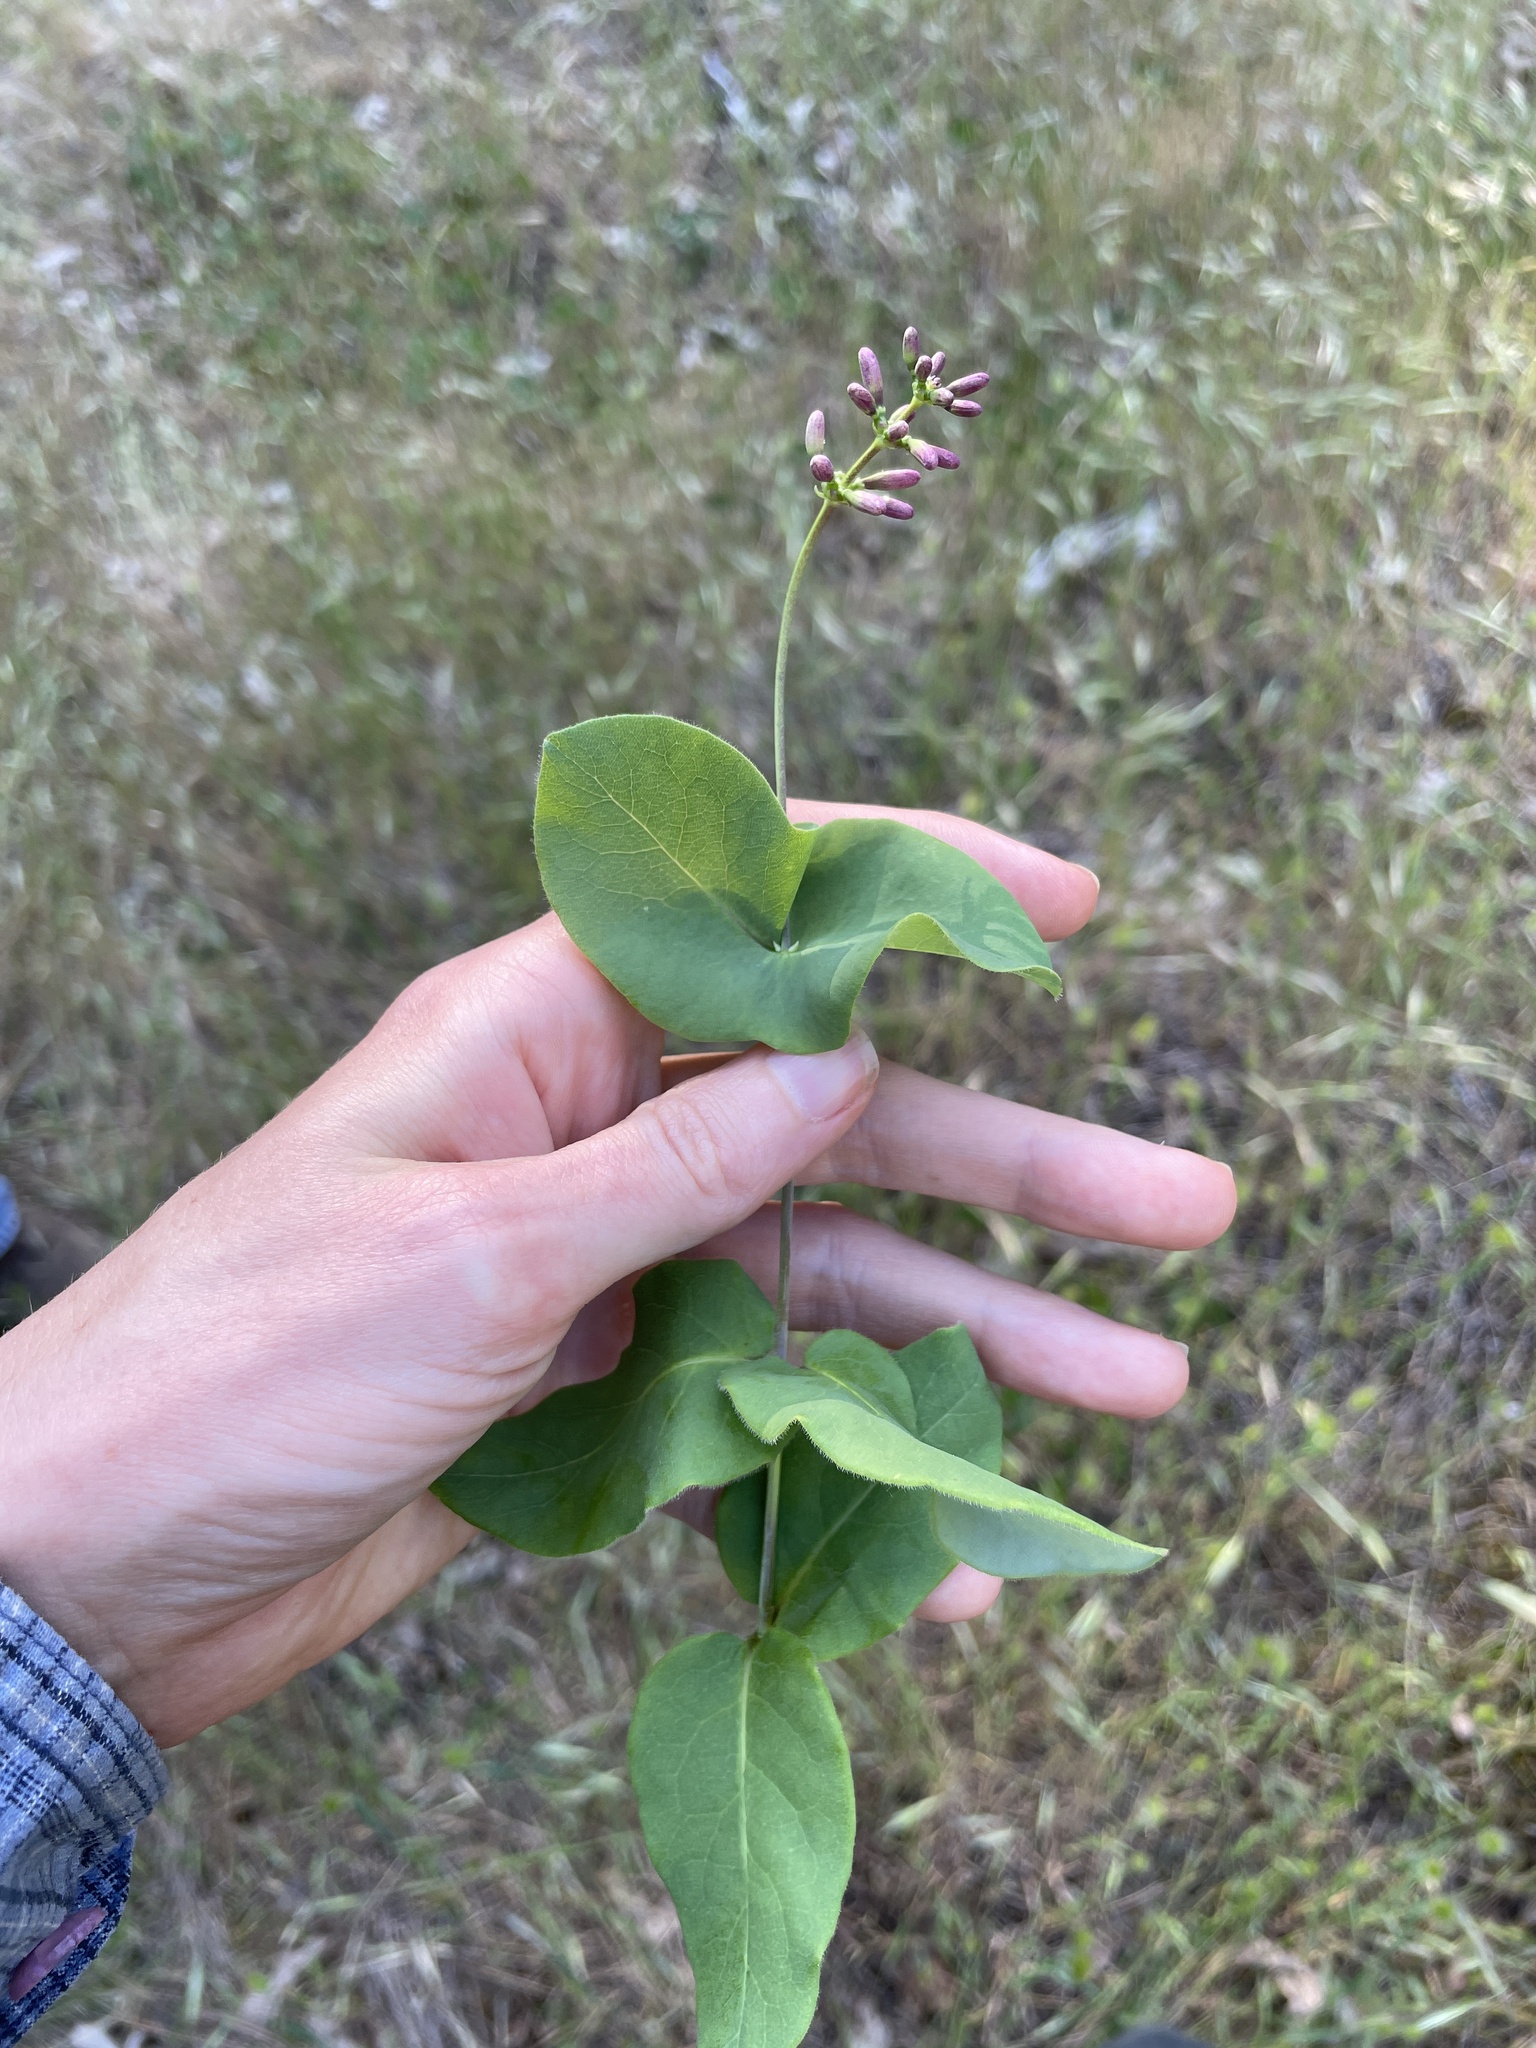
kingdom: Plantae
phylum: Tracheophyta
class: Magnoliopsida
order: Dipsacales
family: Caprifoliaceae
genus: Lonicera
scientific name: Lonicera hispidula
